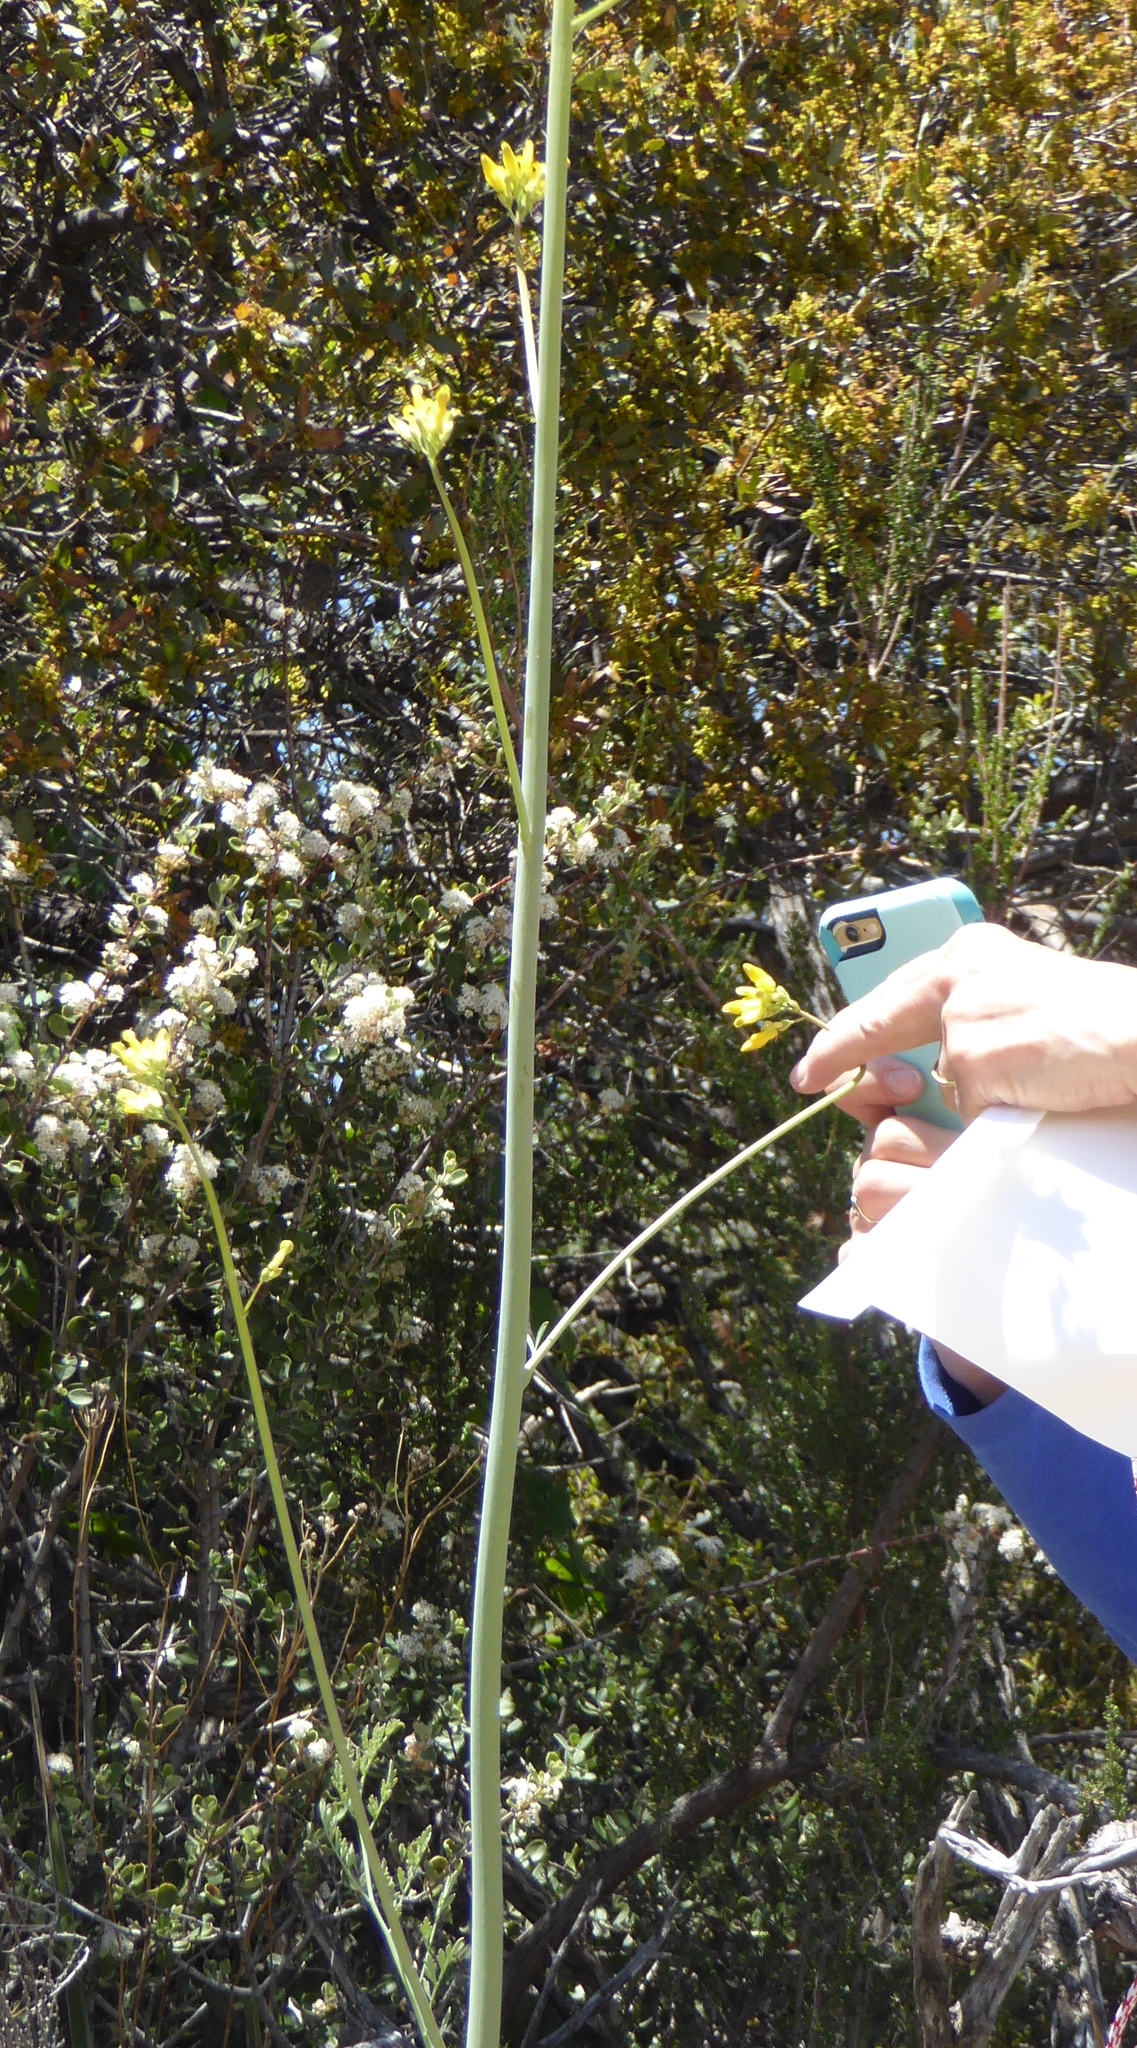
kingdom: Plantae
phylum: Tracheophyta
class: Magnoliopsida
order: Ranunculales
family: Papaveraceae
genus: Ehrendorferia
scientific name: Ehrendorferia chrysantha
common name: Golden eardrops
